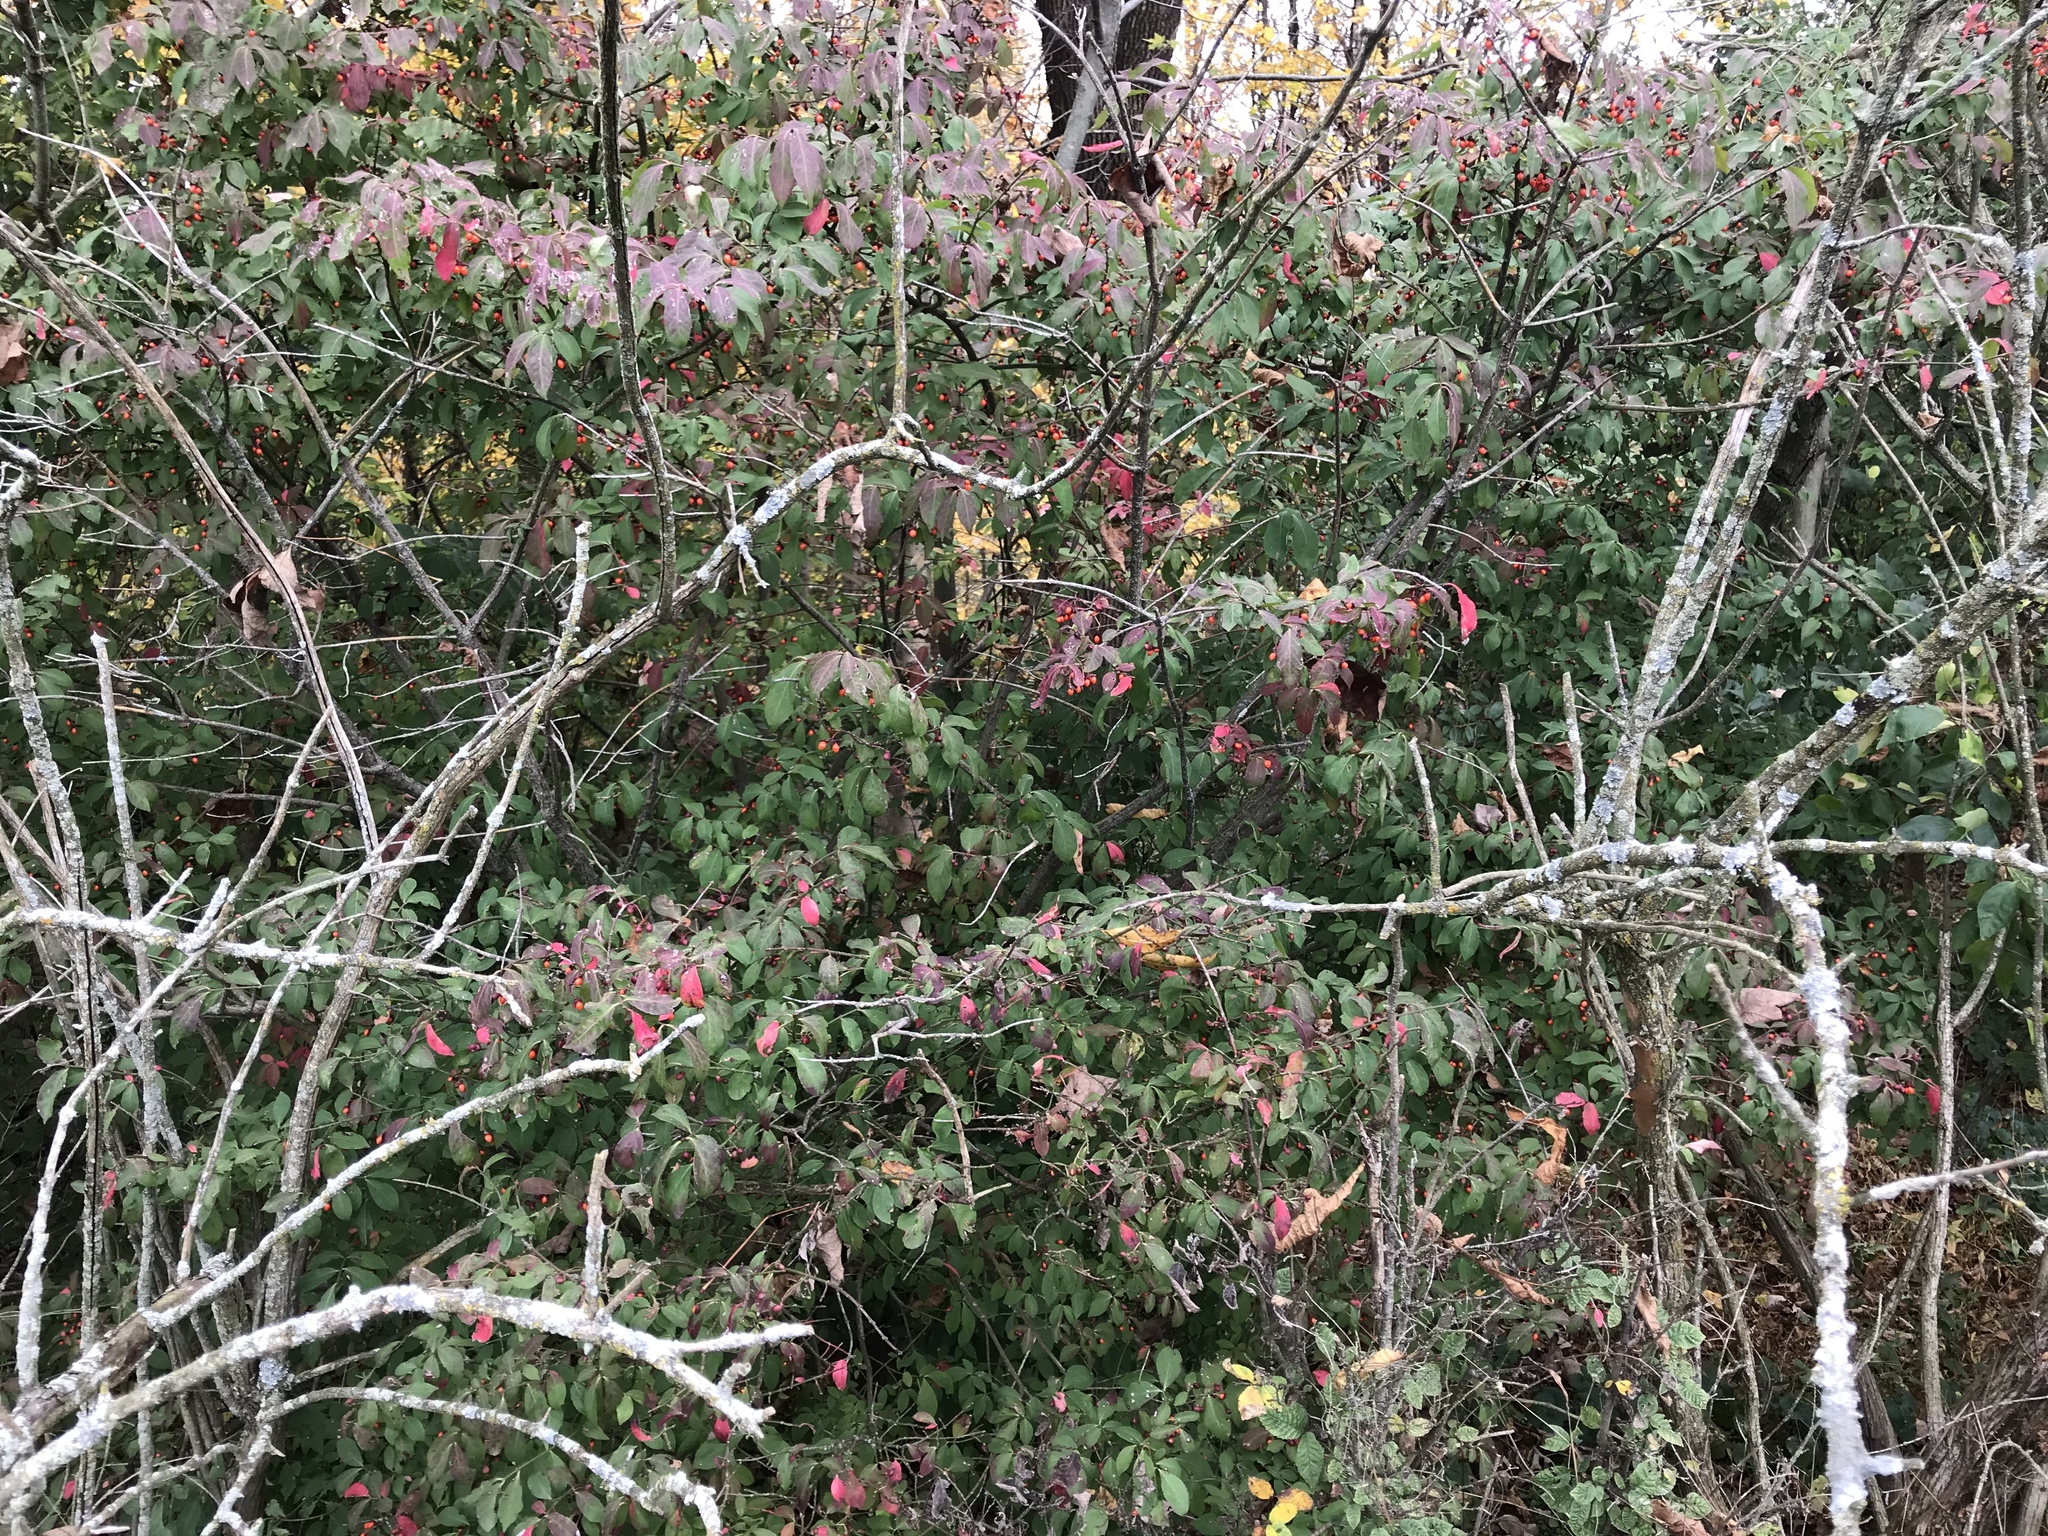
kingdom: Plantae
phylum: Tracheophyta
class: Magnoliopsida
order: Celastrales
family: Celastraceae
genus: Euonymus
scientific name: Euonymus alatus
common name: Winged euonymus
